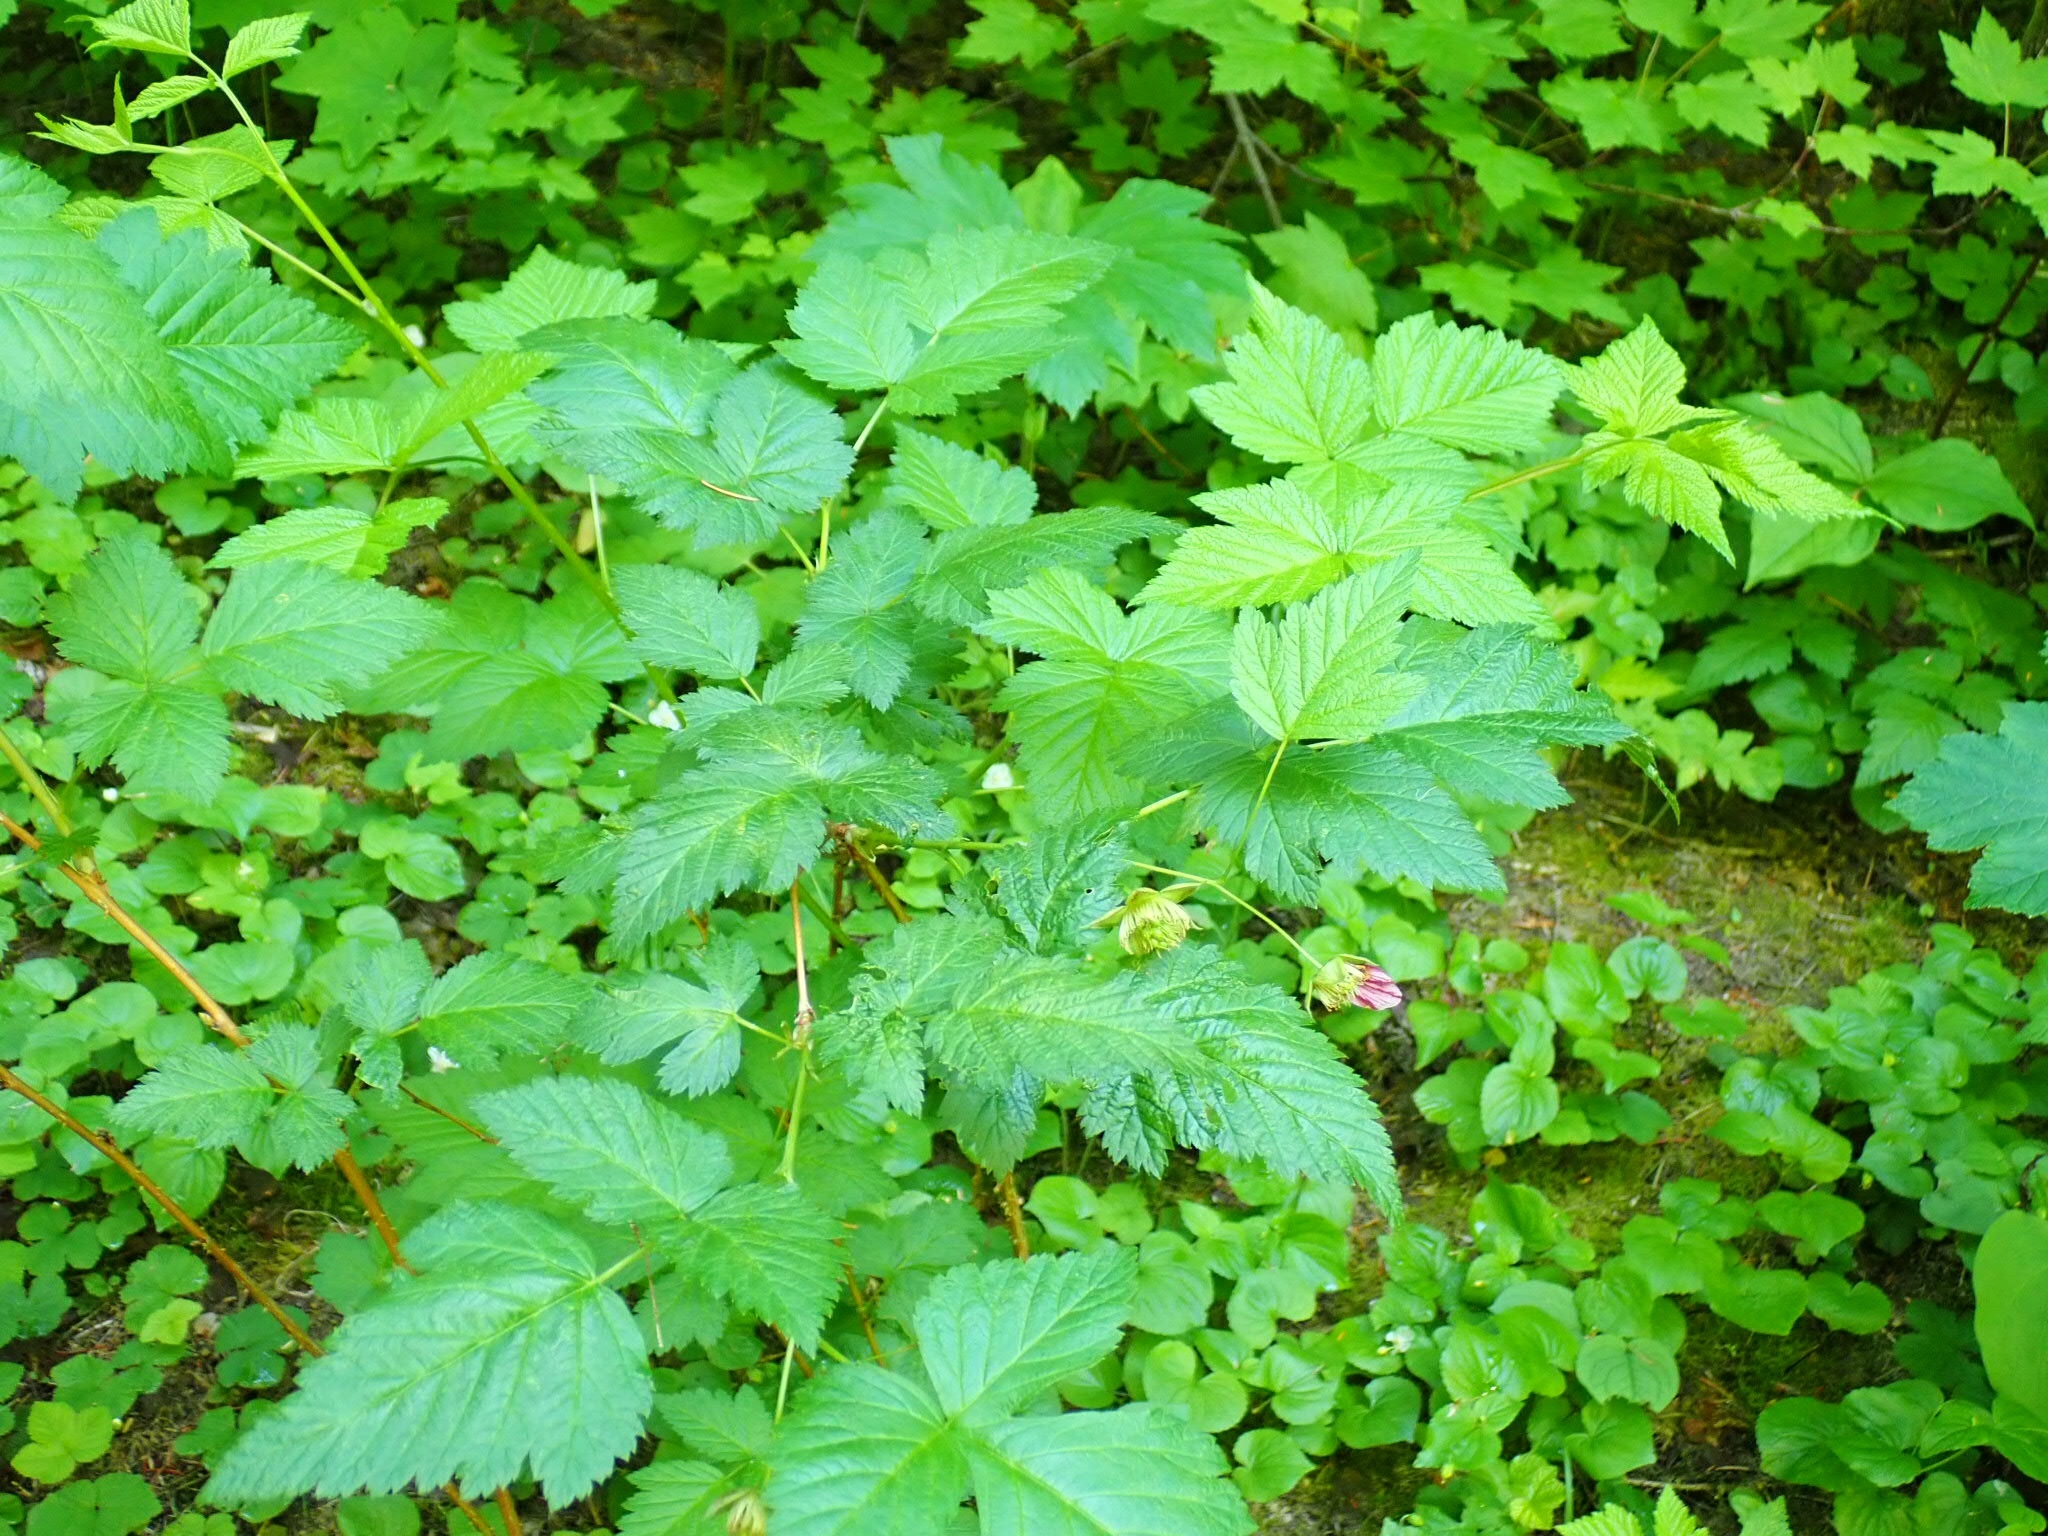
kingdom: Plantae
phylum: Tracheophyta
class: Magnoliopsida
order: Rosales
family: Rosaceae
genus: Rubus
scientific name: Rubus spectabilis
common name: Salmonberry
